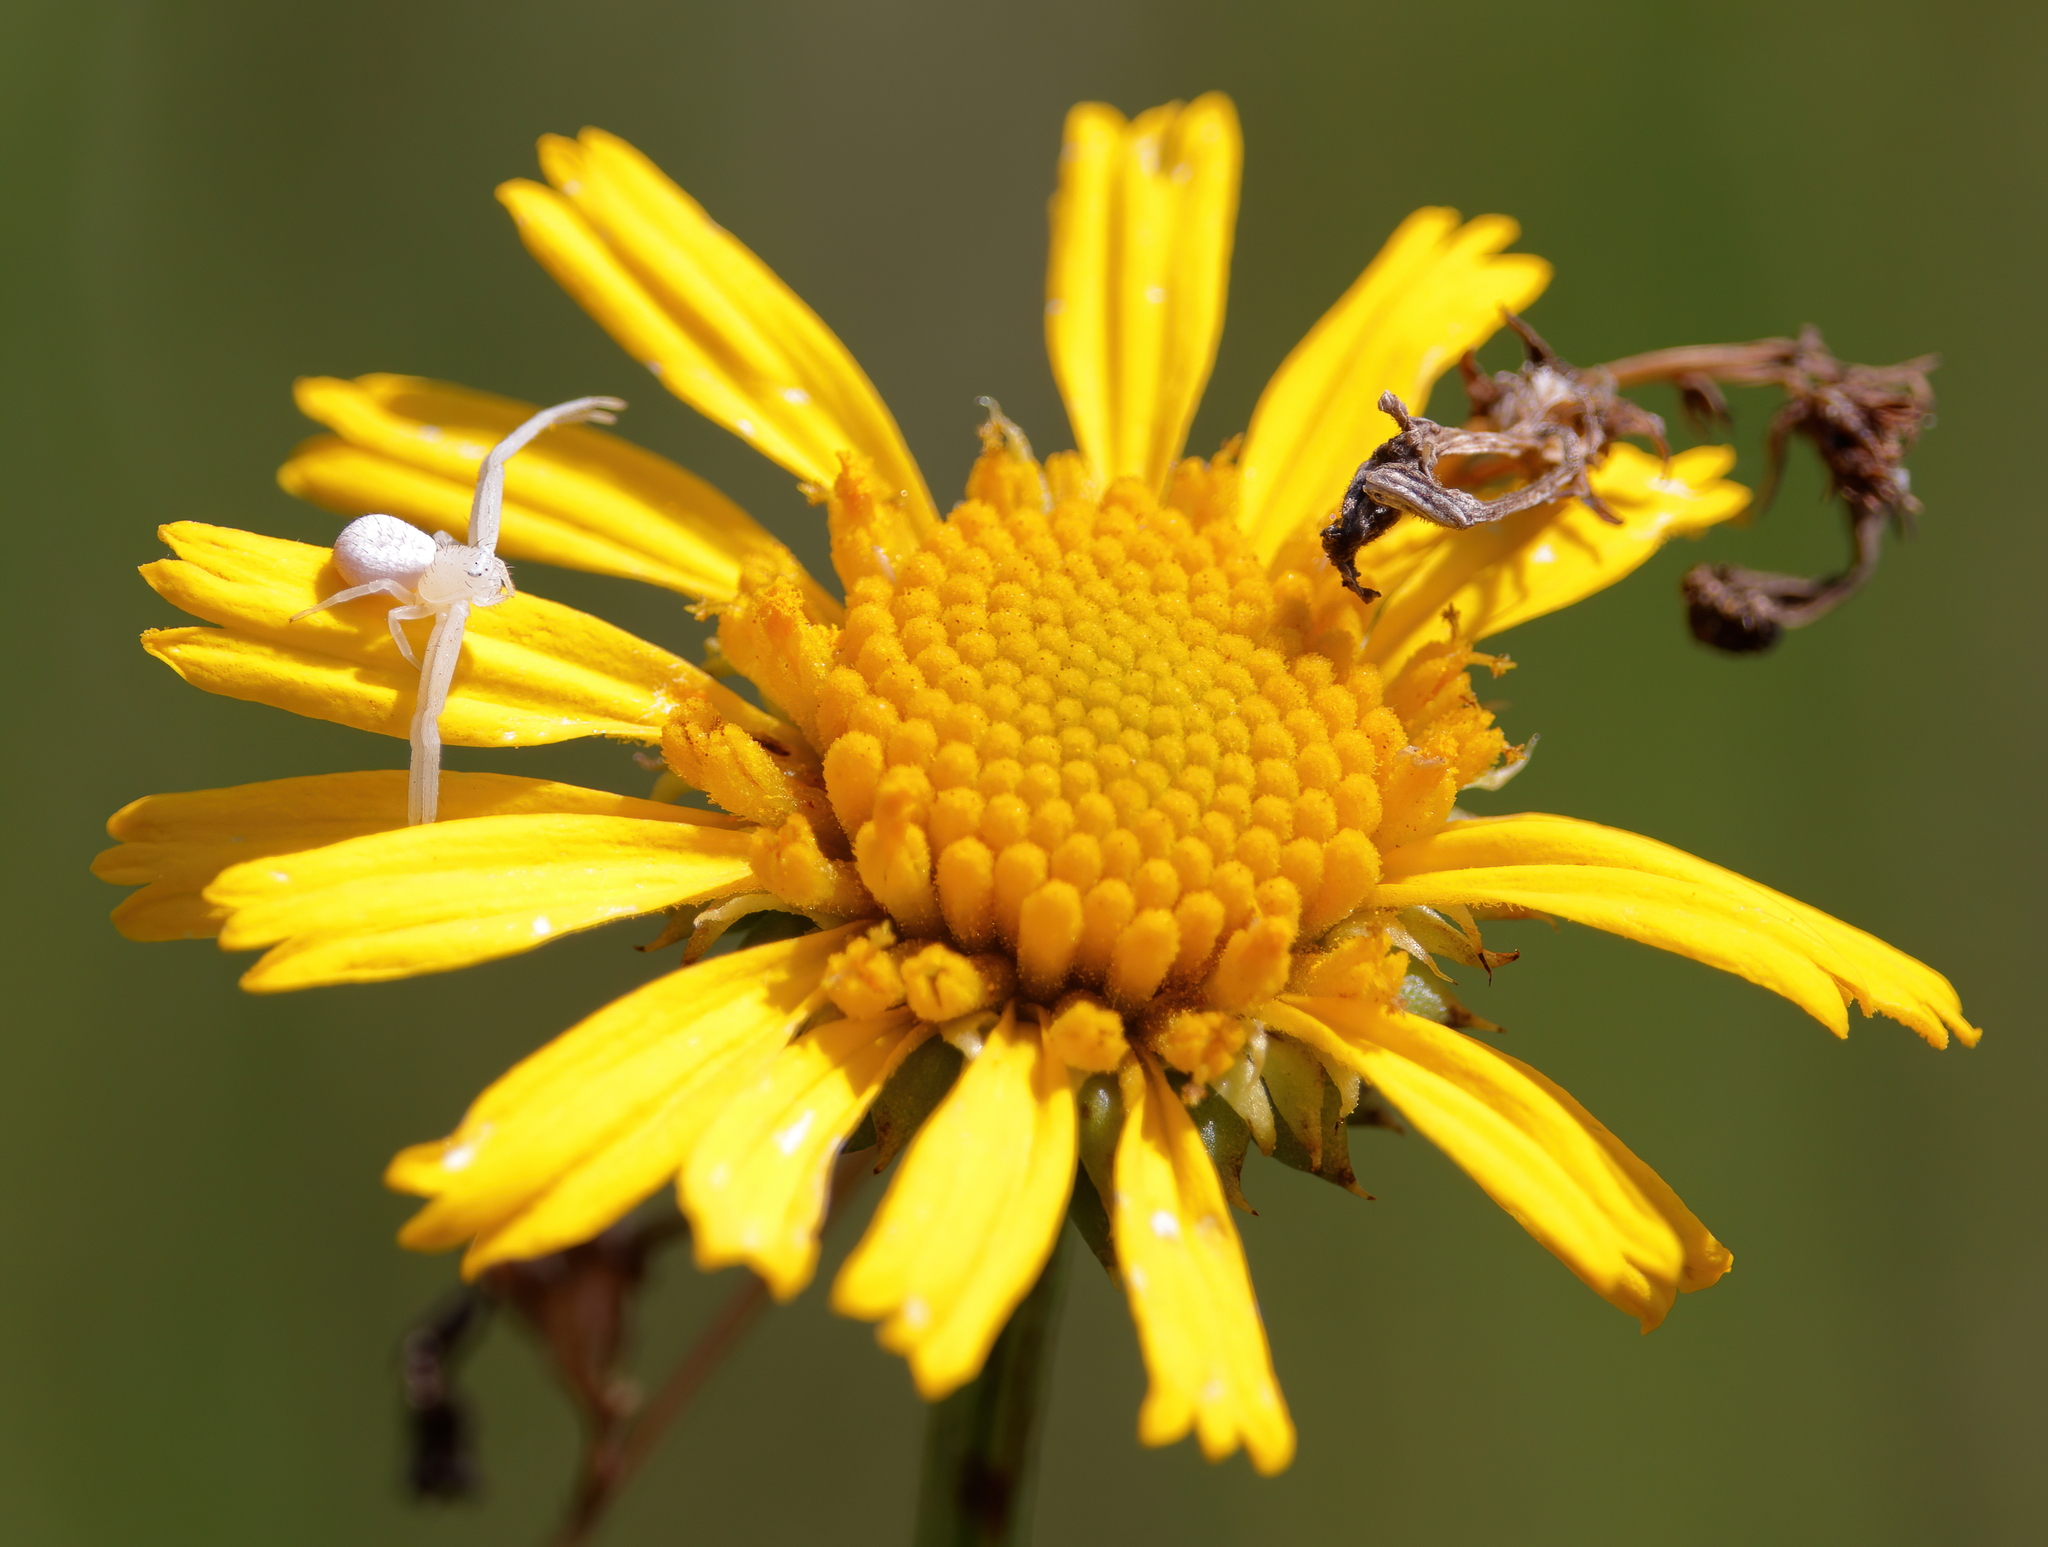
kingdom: Animalia
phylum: Arthropoda
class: Arachnida
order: Araneae
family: Thomisidae
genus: Misumessus
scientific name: Misumessus oblongus
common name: American green crab spider
